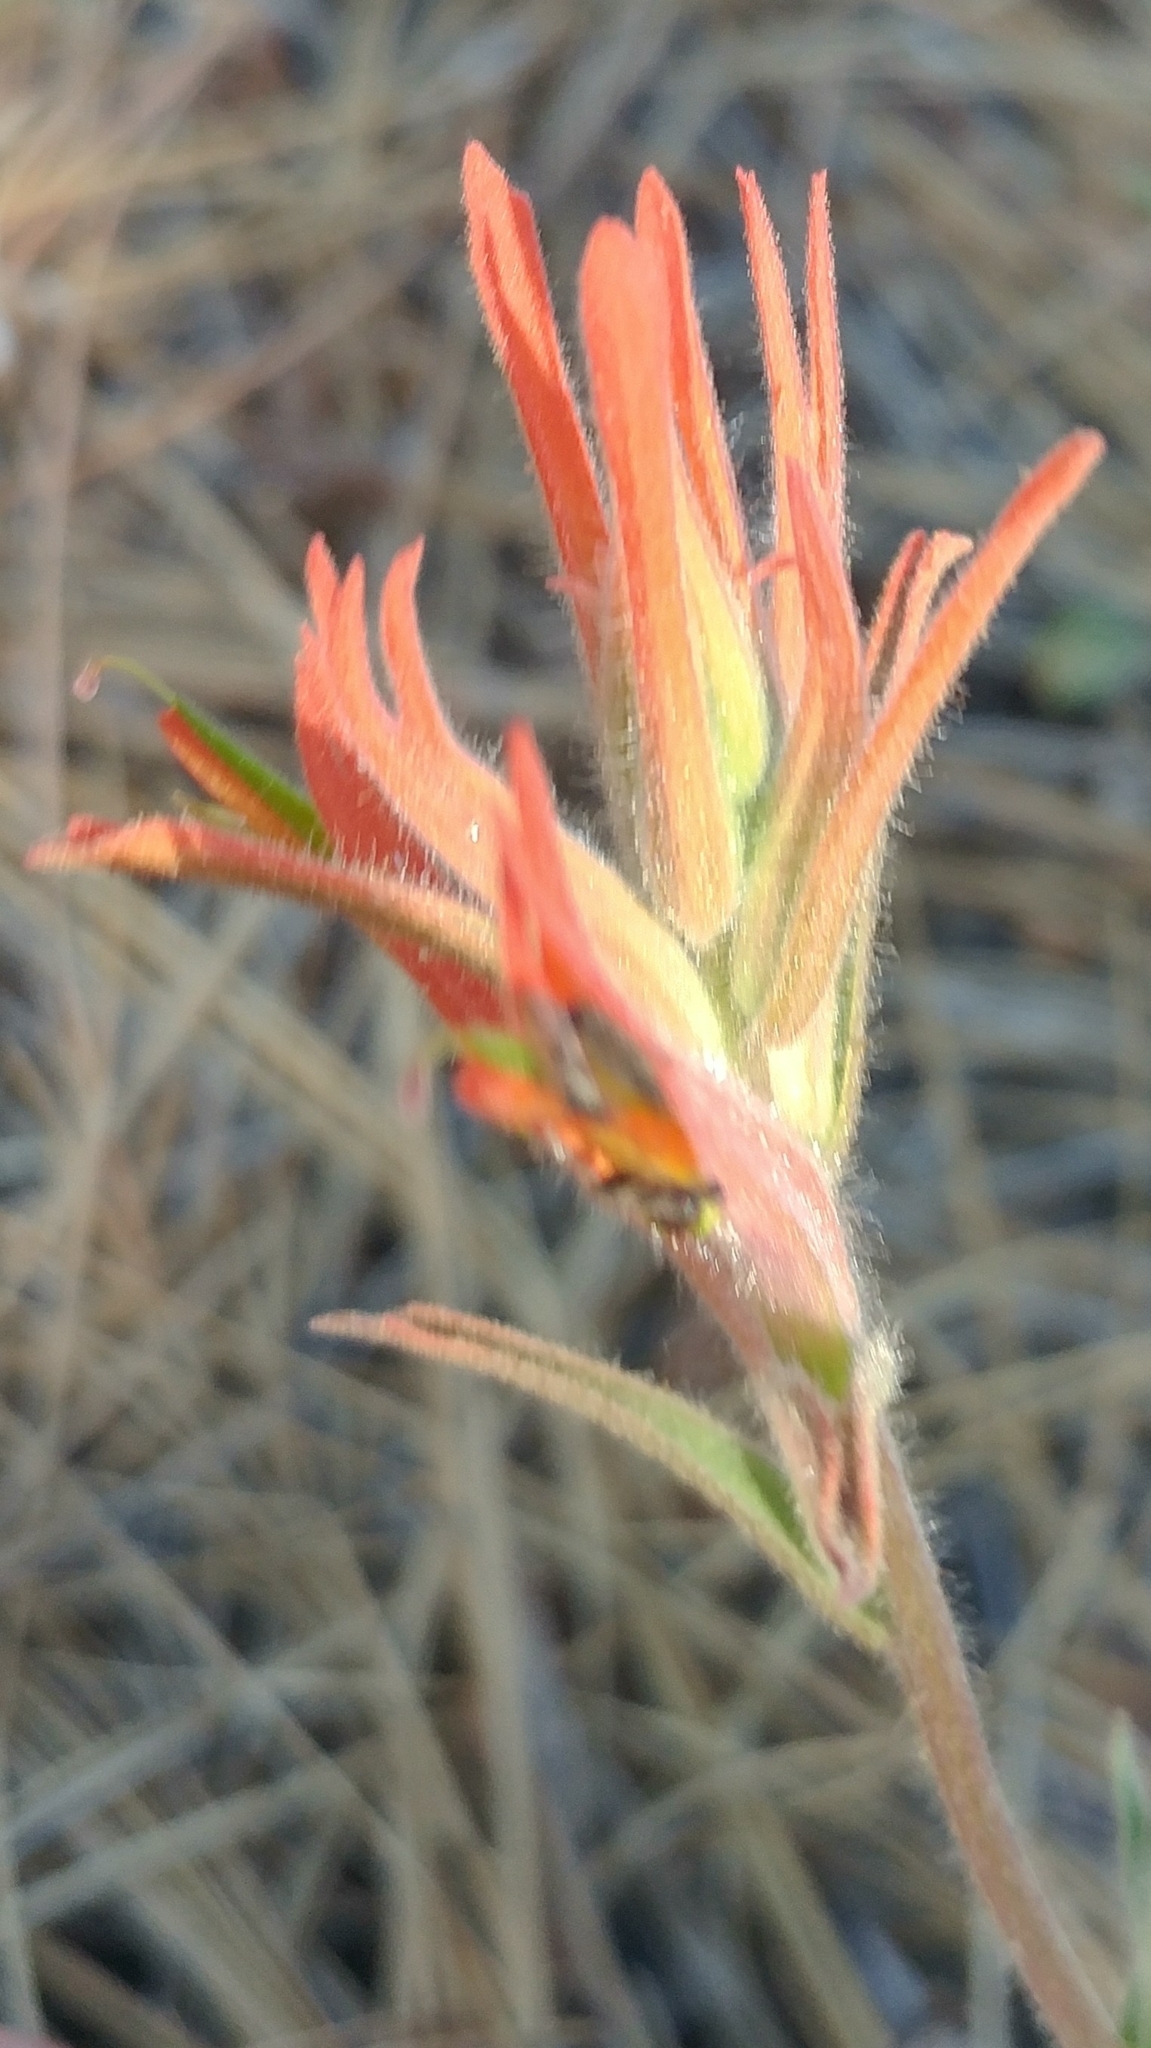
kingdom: Plantae
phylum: Tracheophyta
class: Magnoliopsida
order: Lamiales
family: Orobanchaceae
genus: Castilleja
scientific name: Castilleja subinclusa
